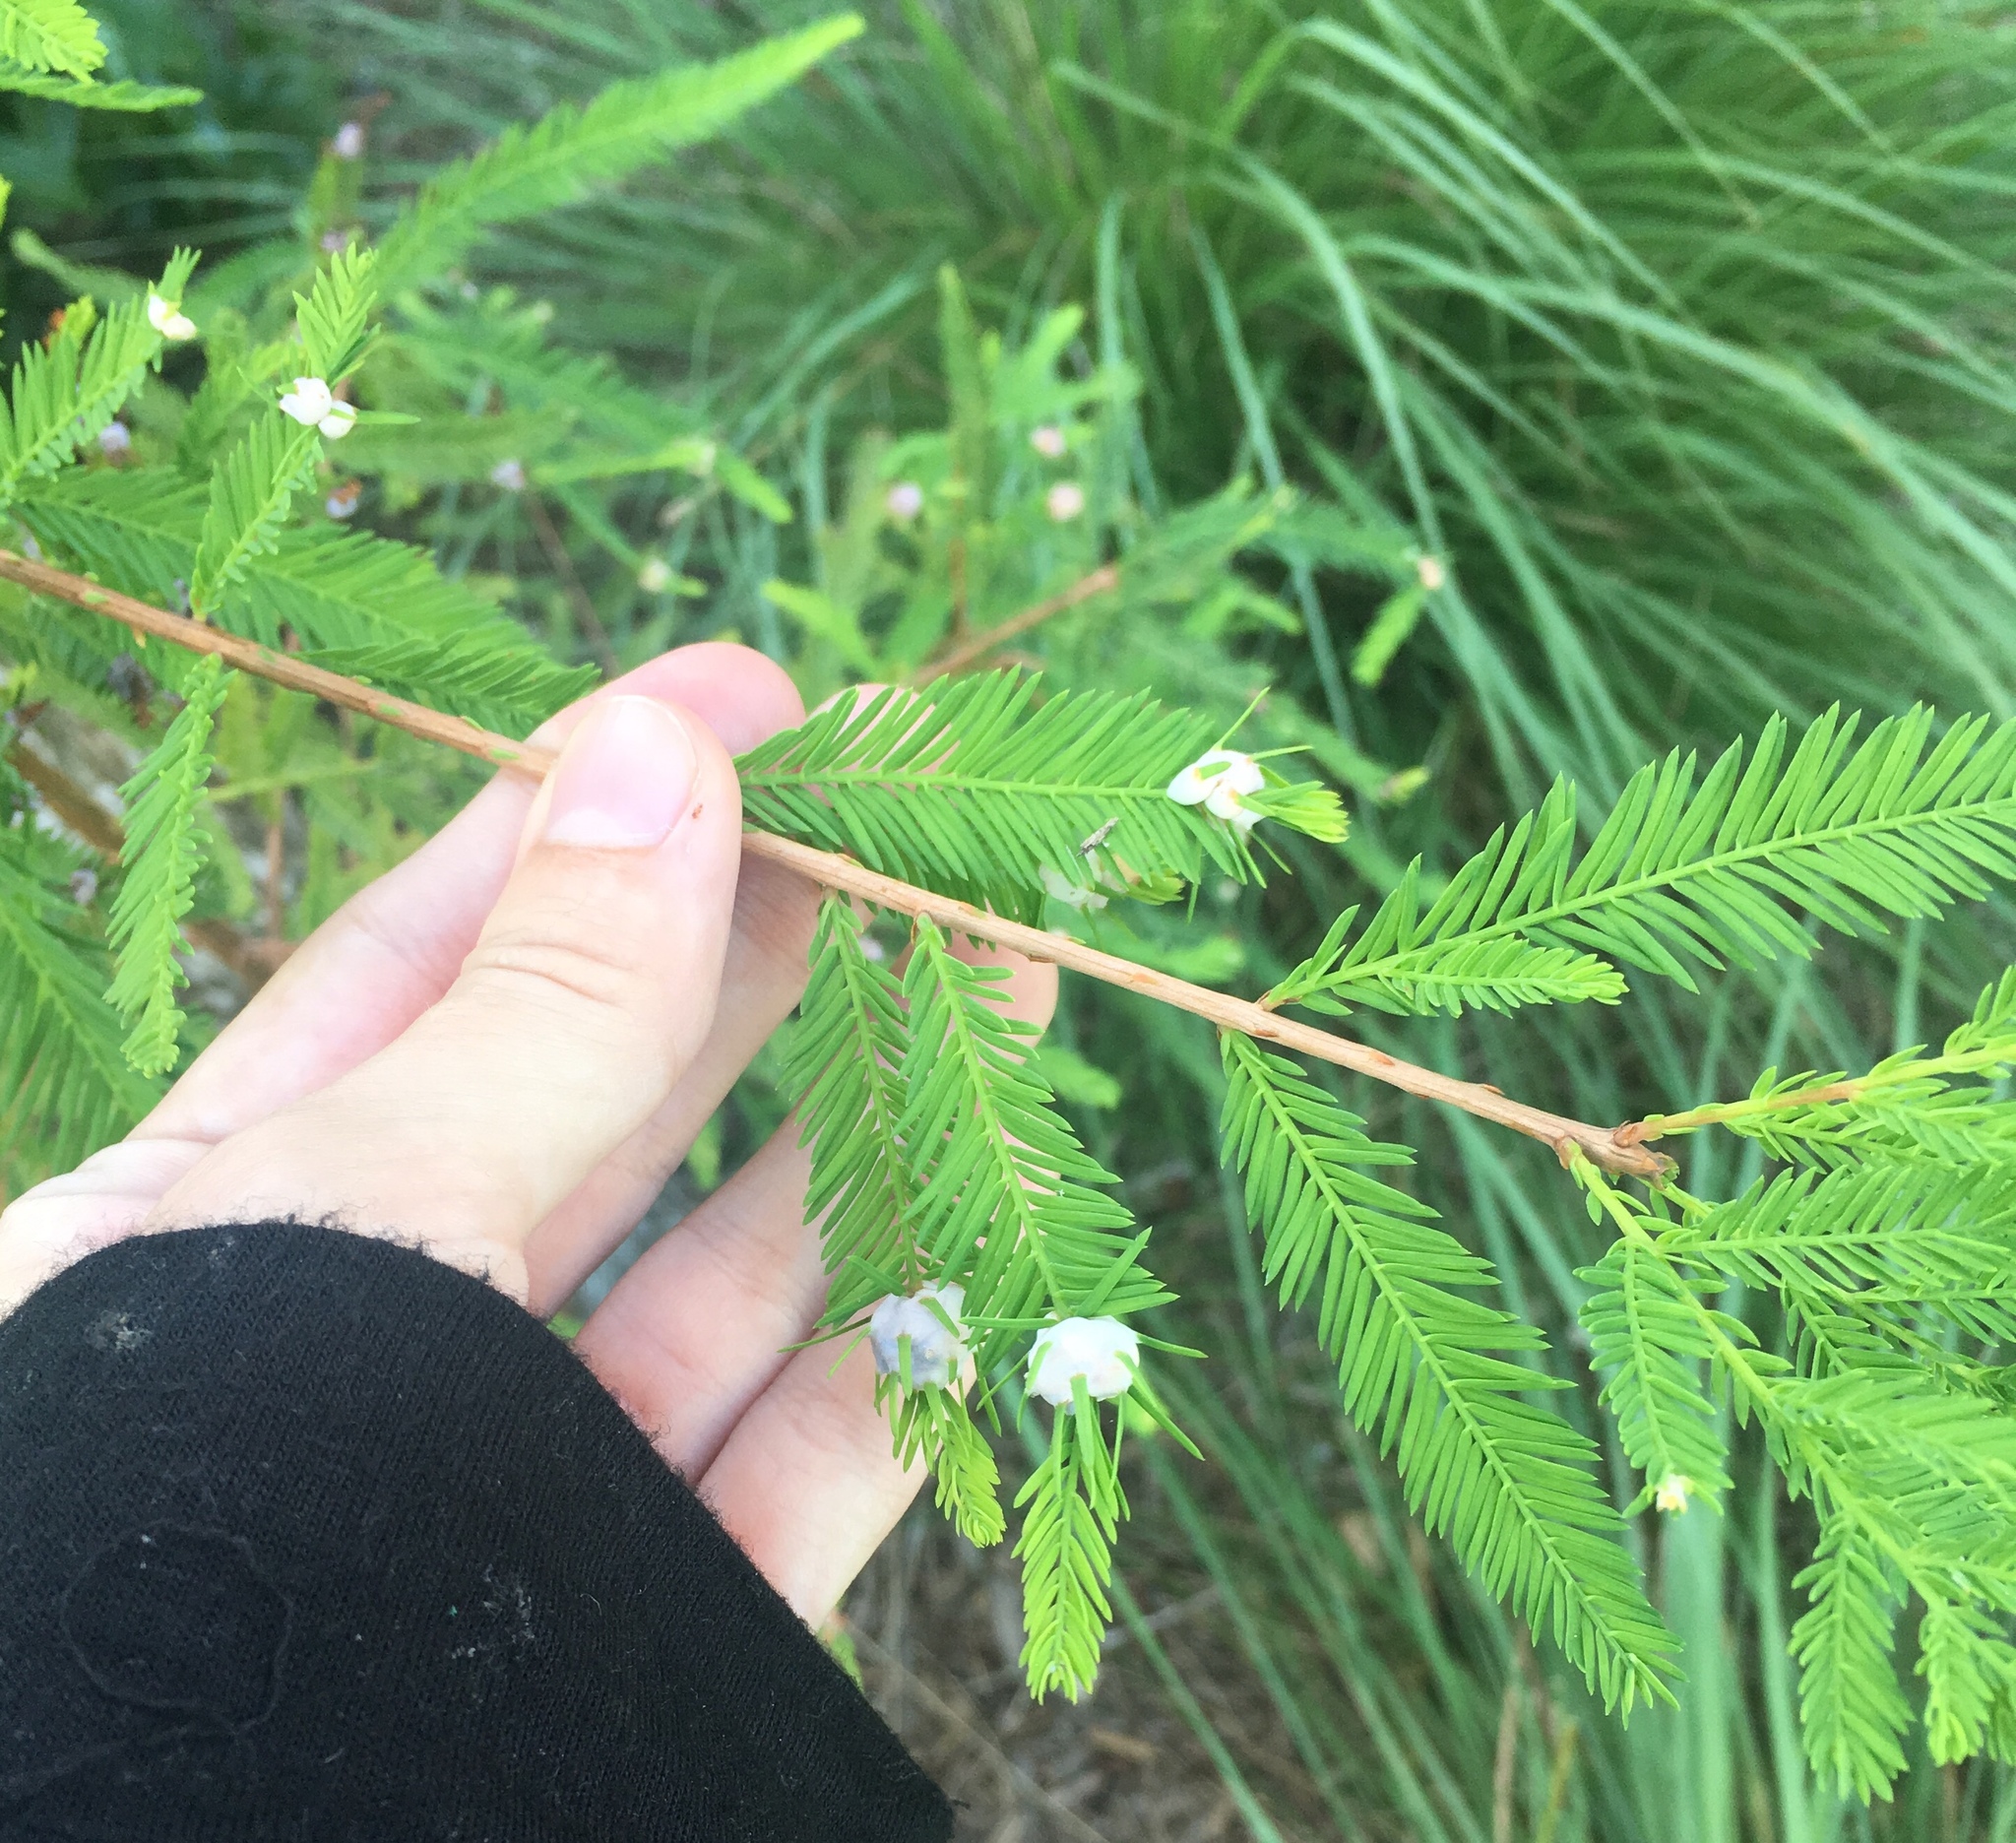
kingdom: Animalia
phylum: Arthropoda
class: Insecta
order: Diptera
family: Cecidomyiidae
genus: Taxodiomyia
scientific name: Taxodiomyia cupressiananassa
